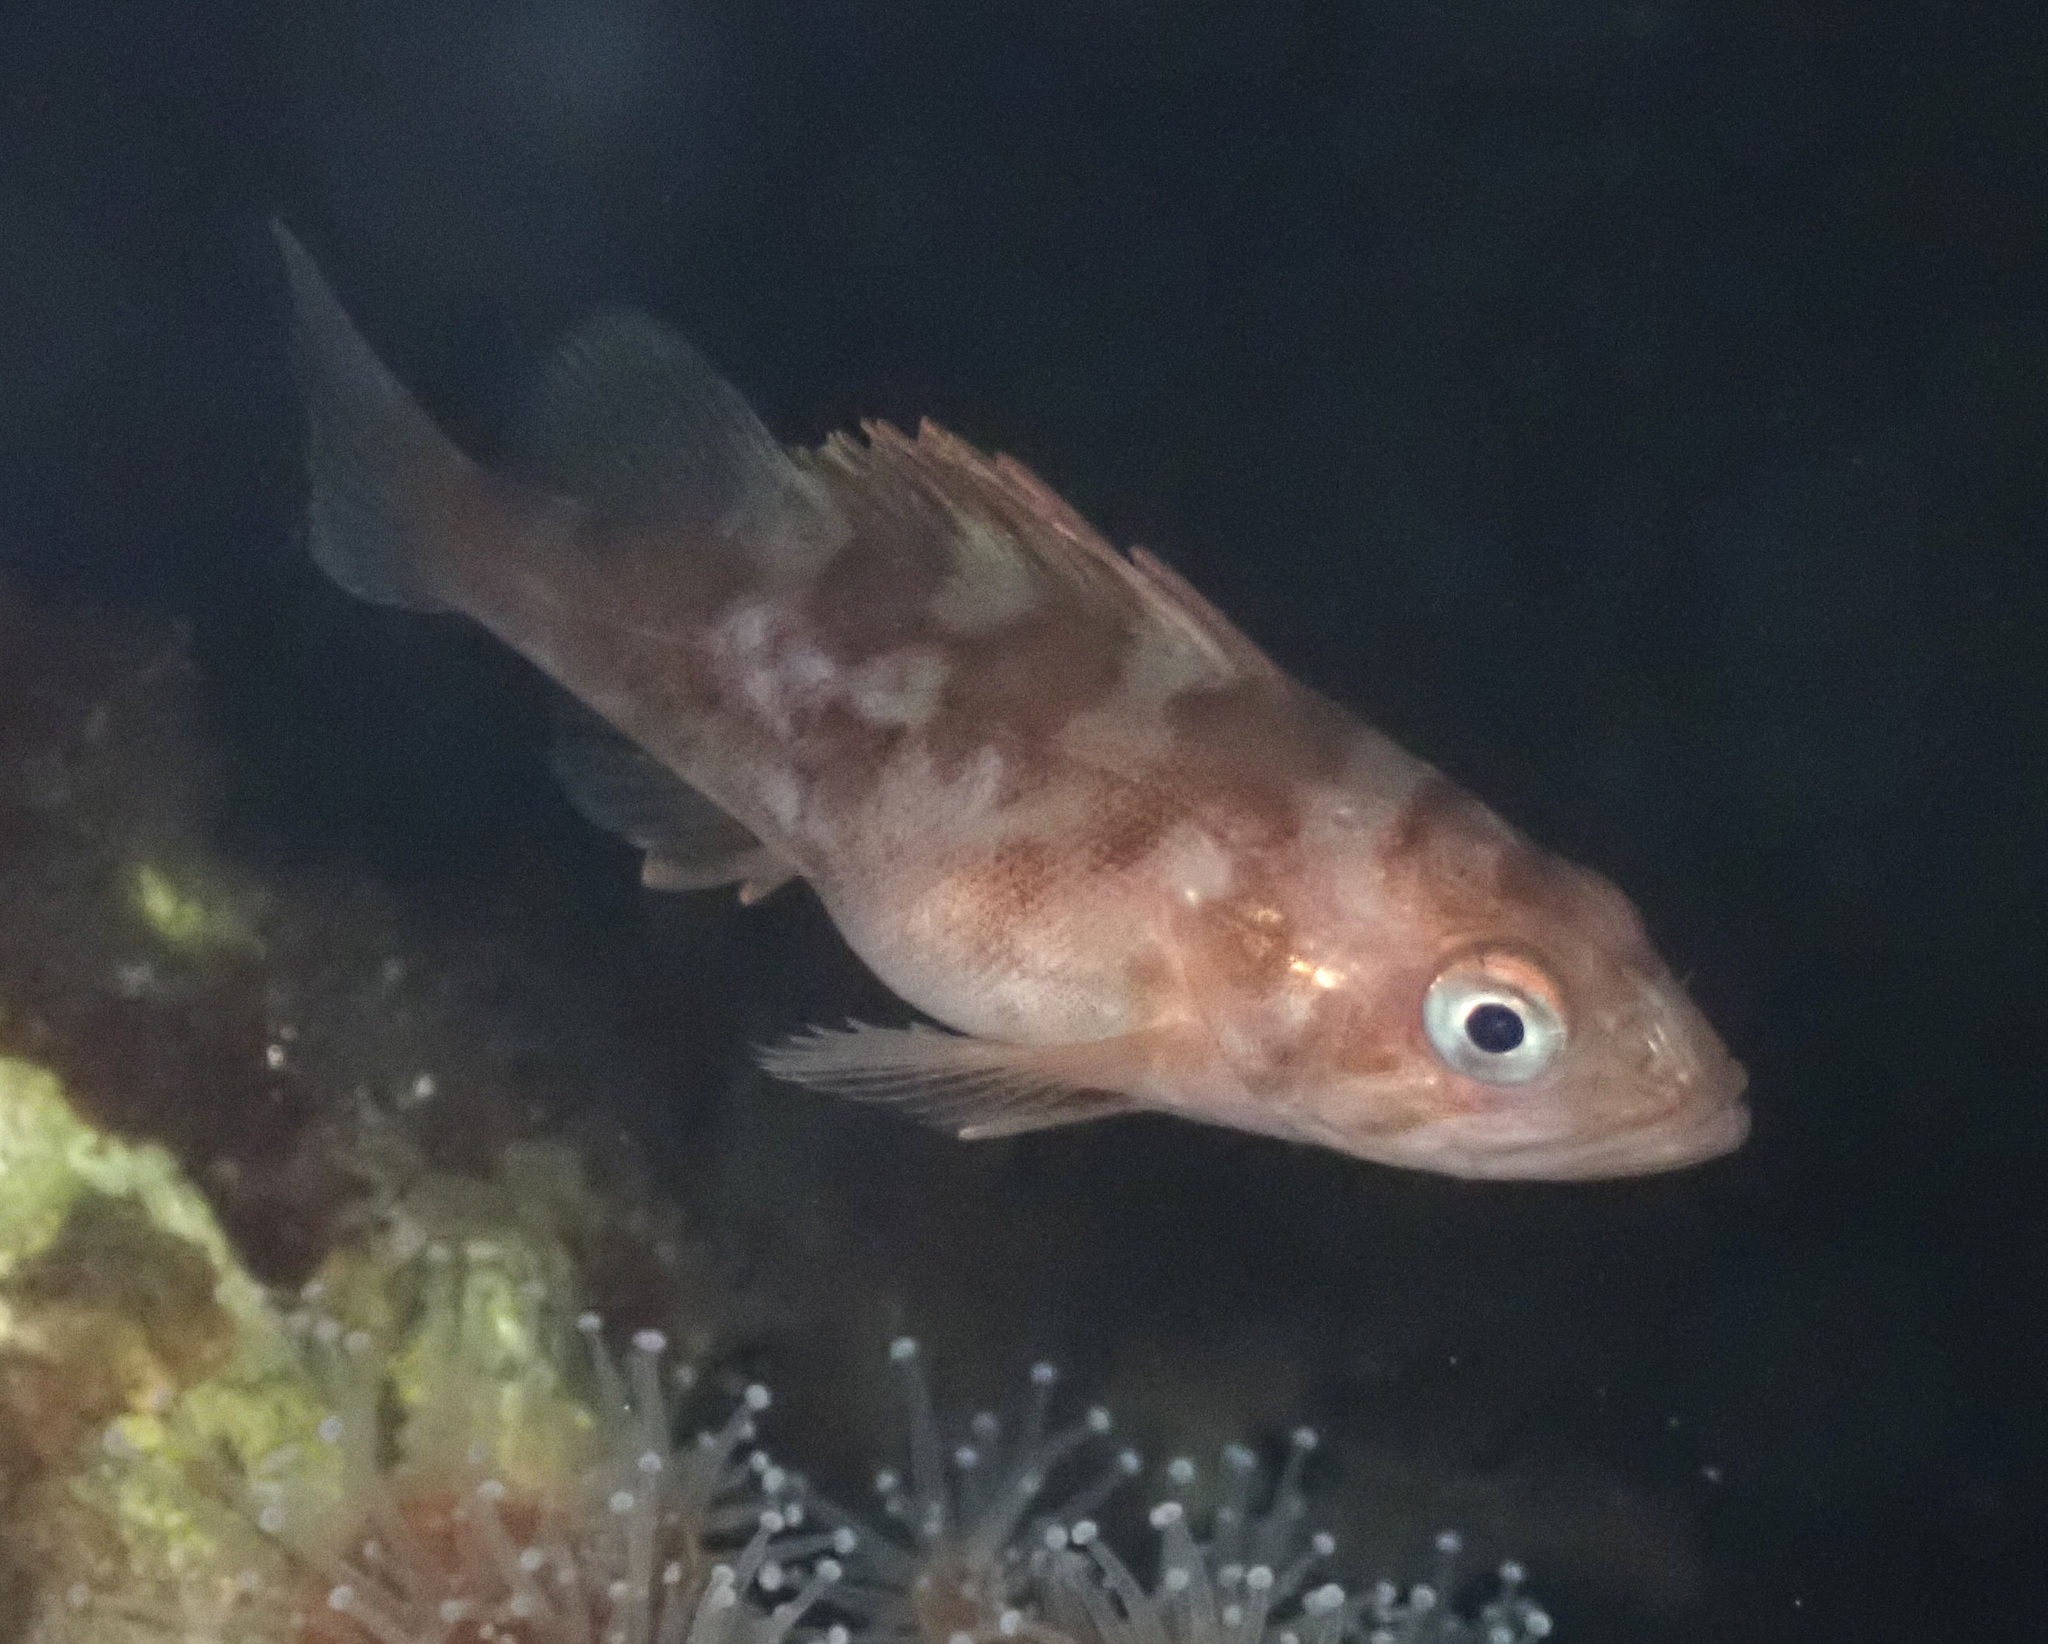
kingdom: Animalia
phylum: Chordata
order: Scorpaeniformes
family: Sebastidae
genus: Sebastes
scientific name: Sebastes carnatus
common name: Gopher rockfish
